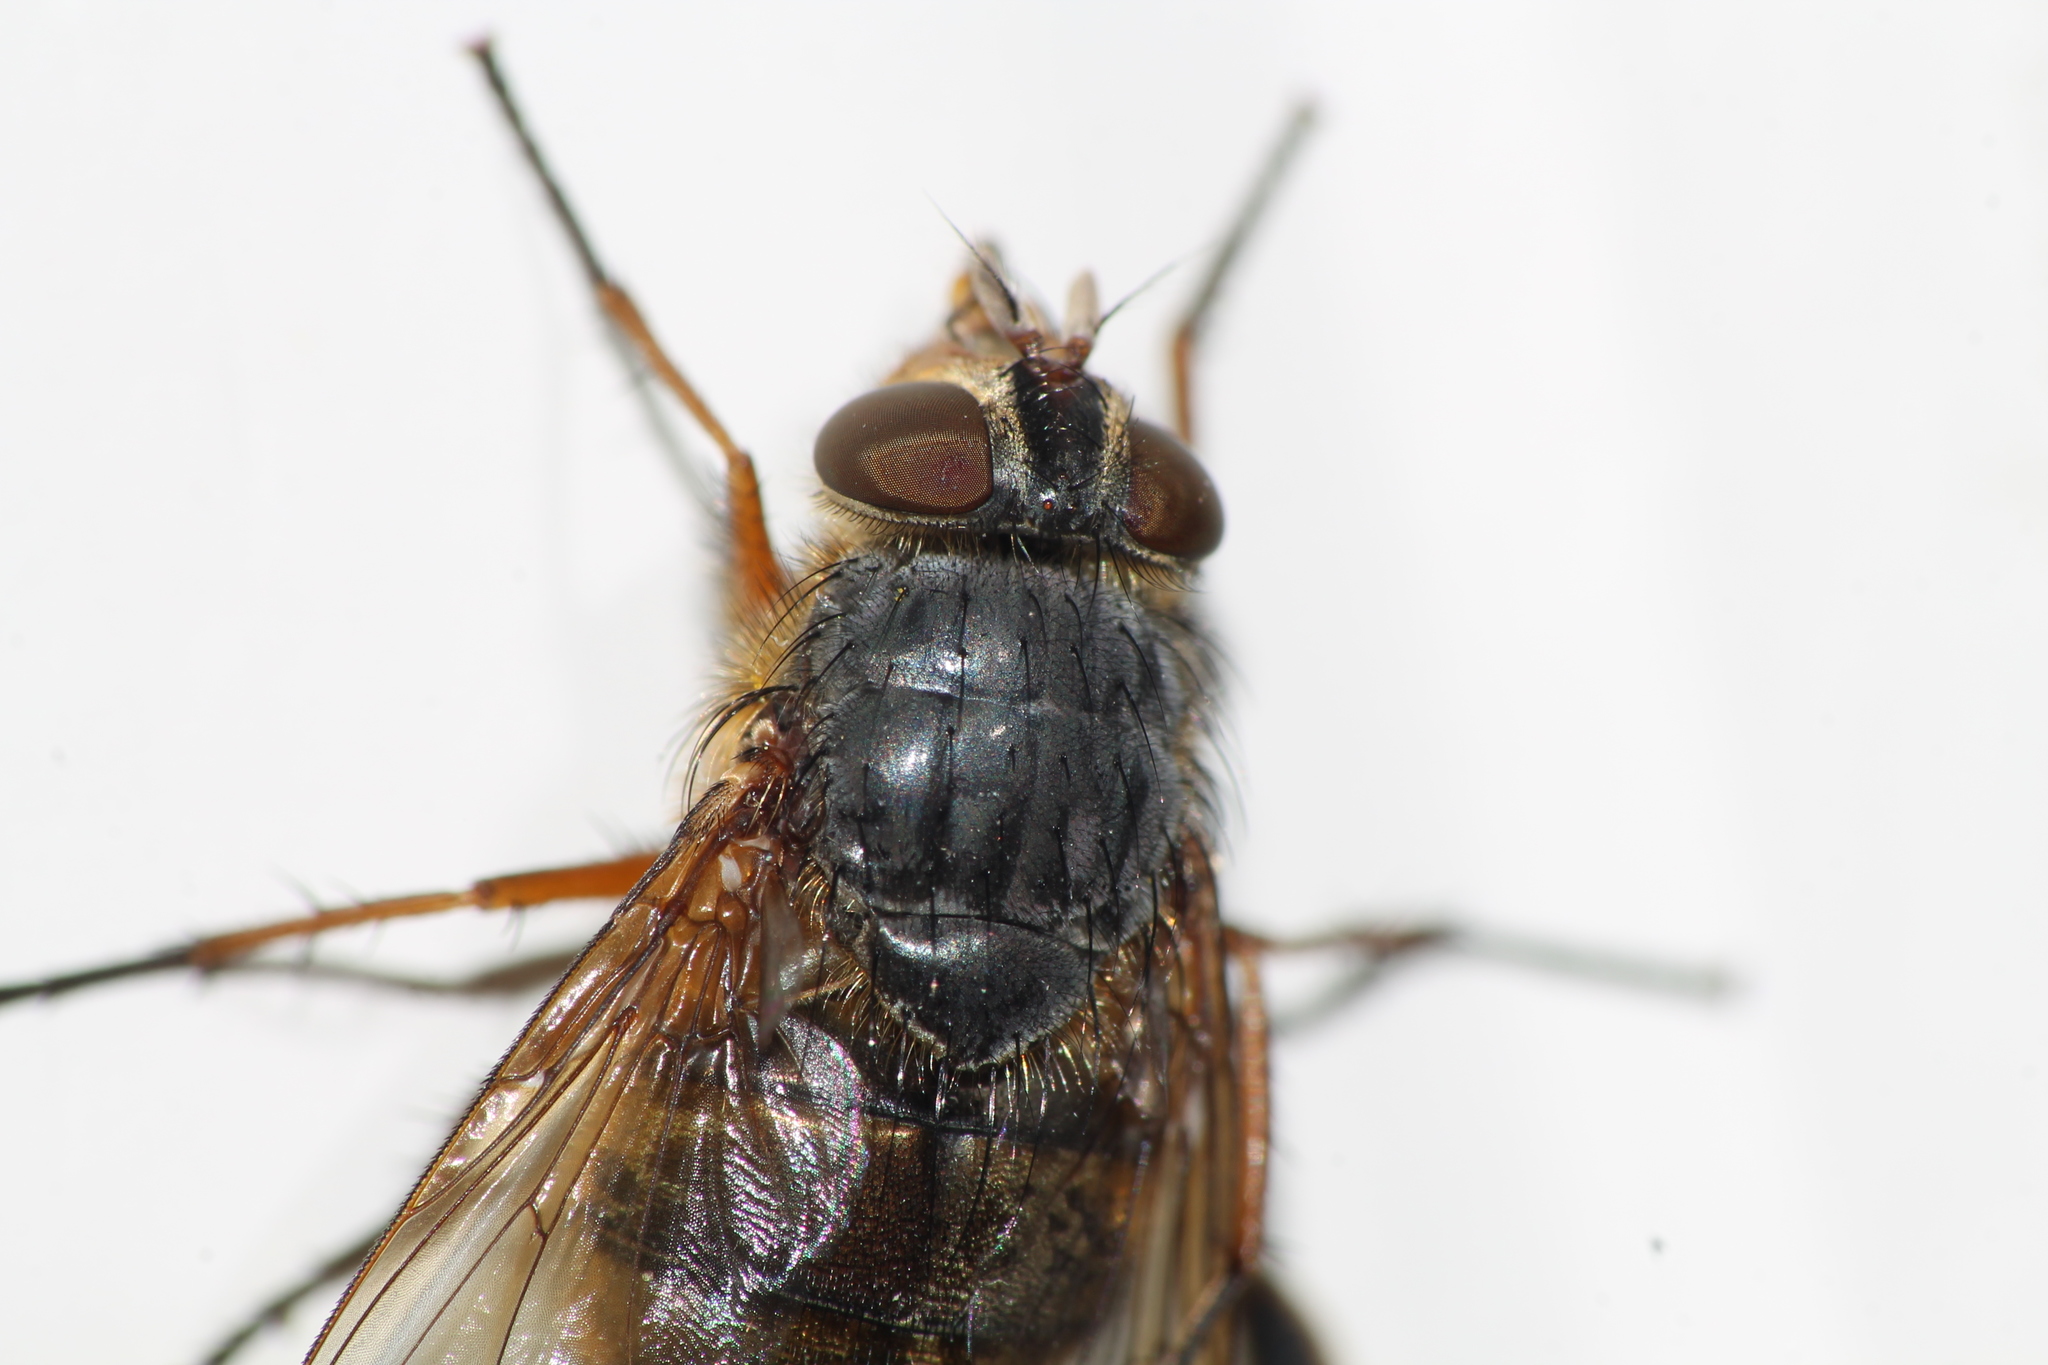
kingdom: Animalia
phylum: Arthropoda
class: Insecta
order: Diptera
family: Calliphoridae
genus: Calliphora
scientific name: Calliphora hilli
